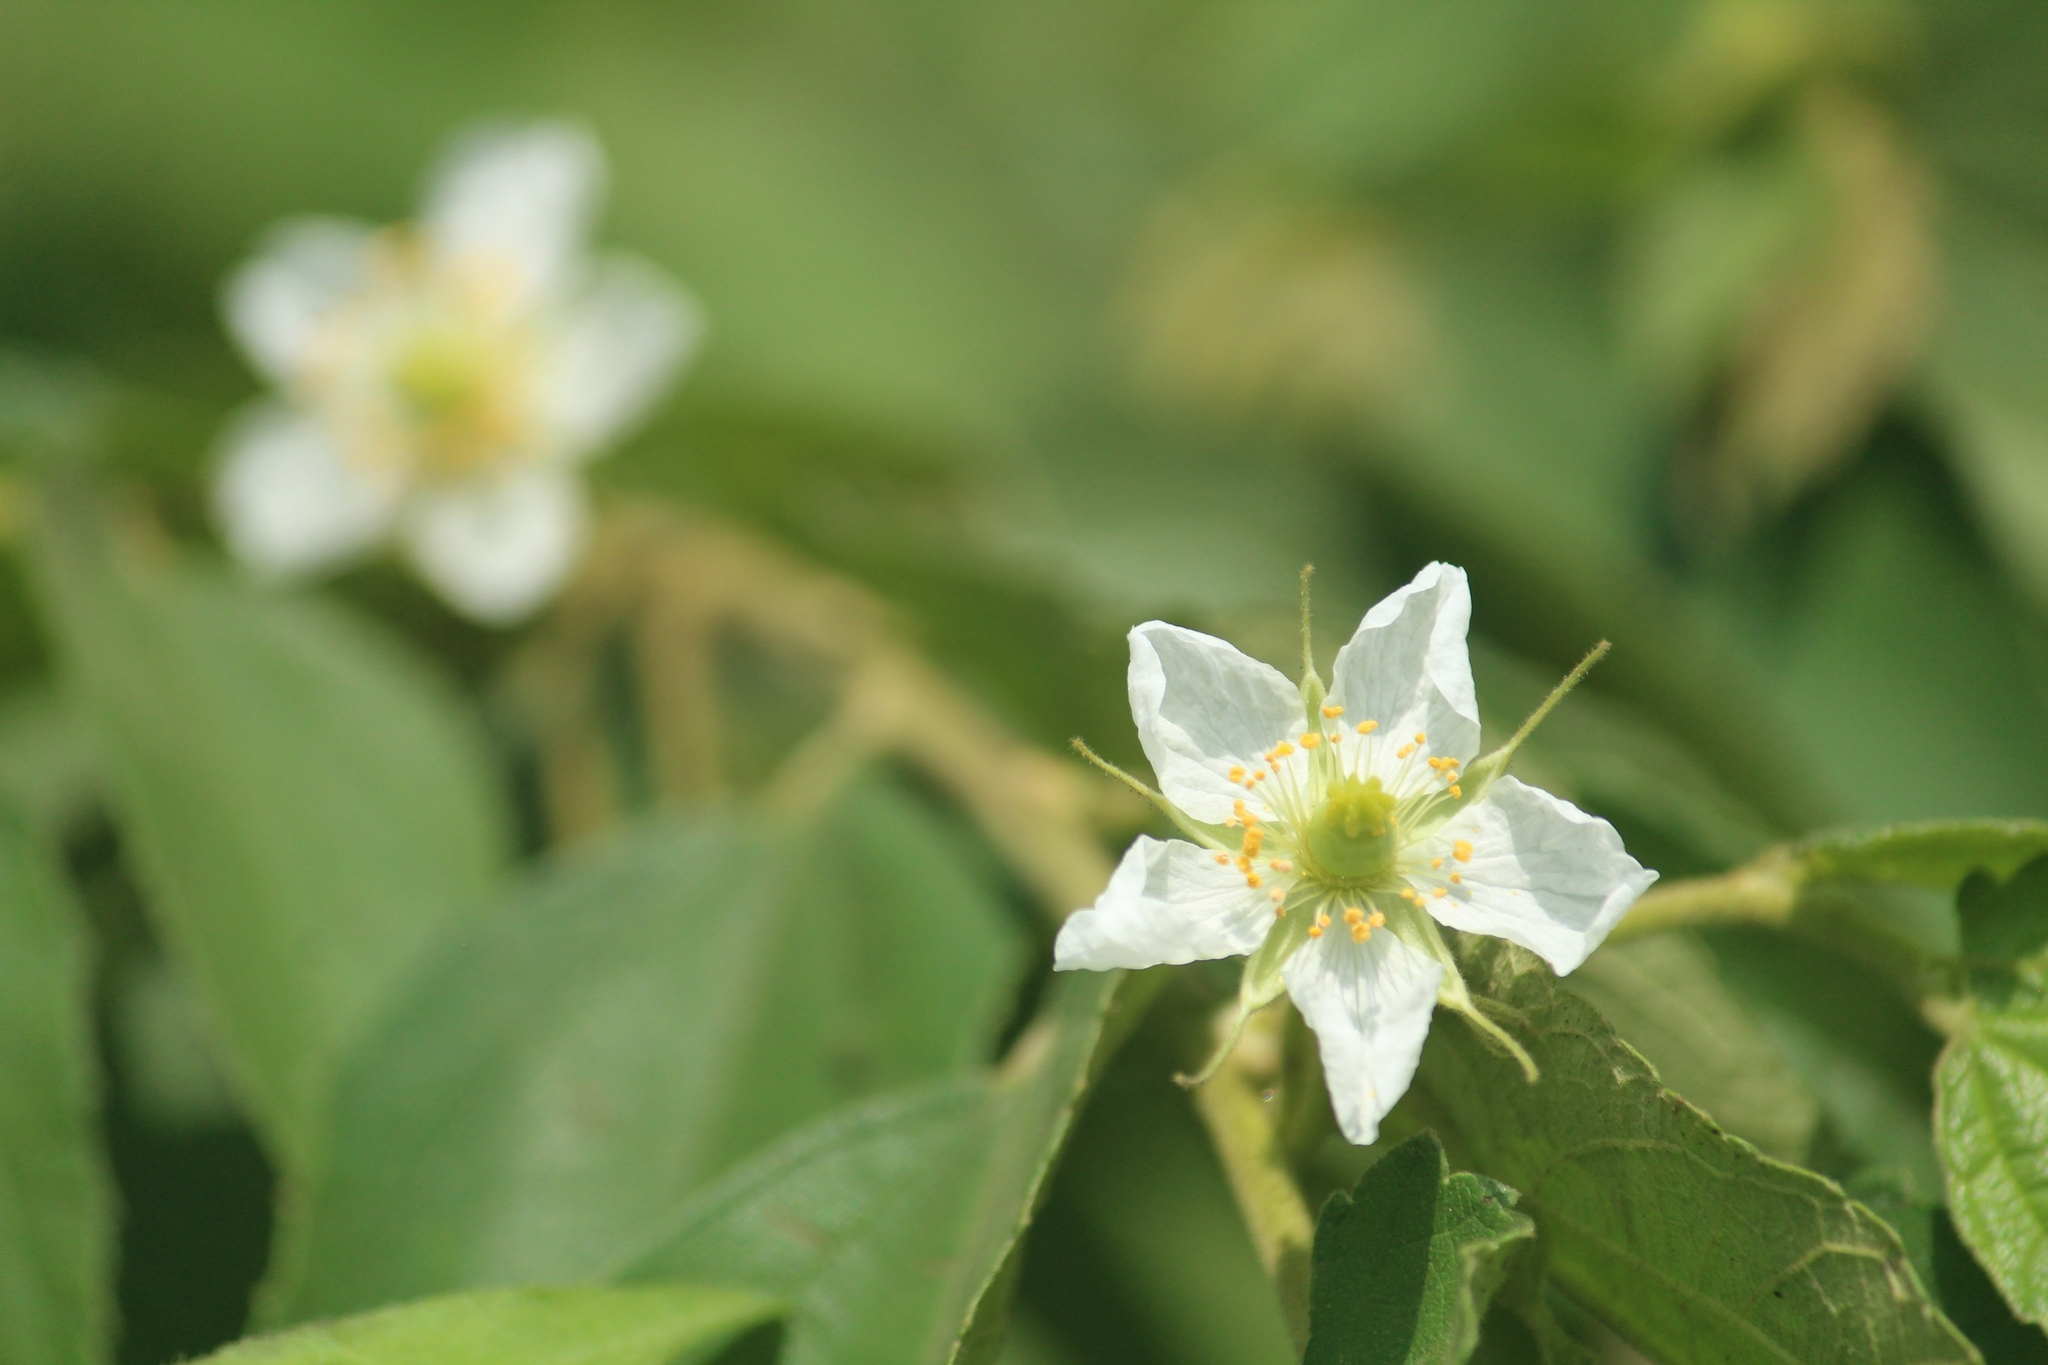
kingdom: Plantae
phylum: Tracheophyta
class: Magnoliopsida
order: Malvales
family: Muntingiaceae
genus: Muntingia
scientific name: Muntingia calabura
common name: Strawberrytree
